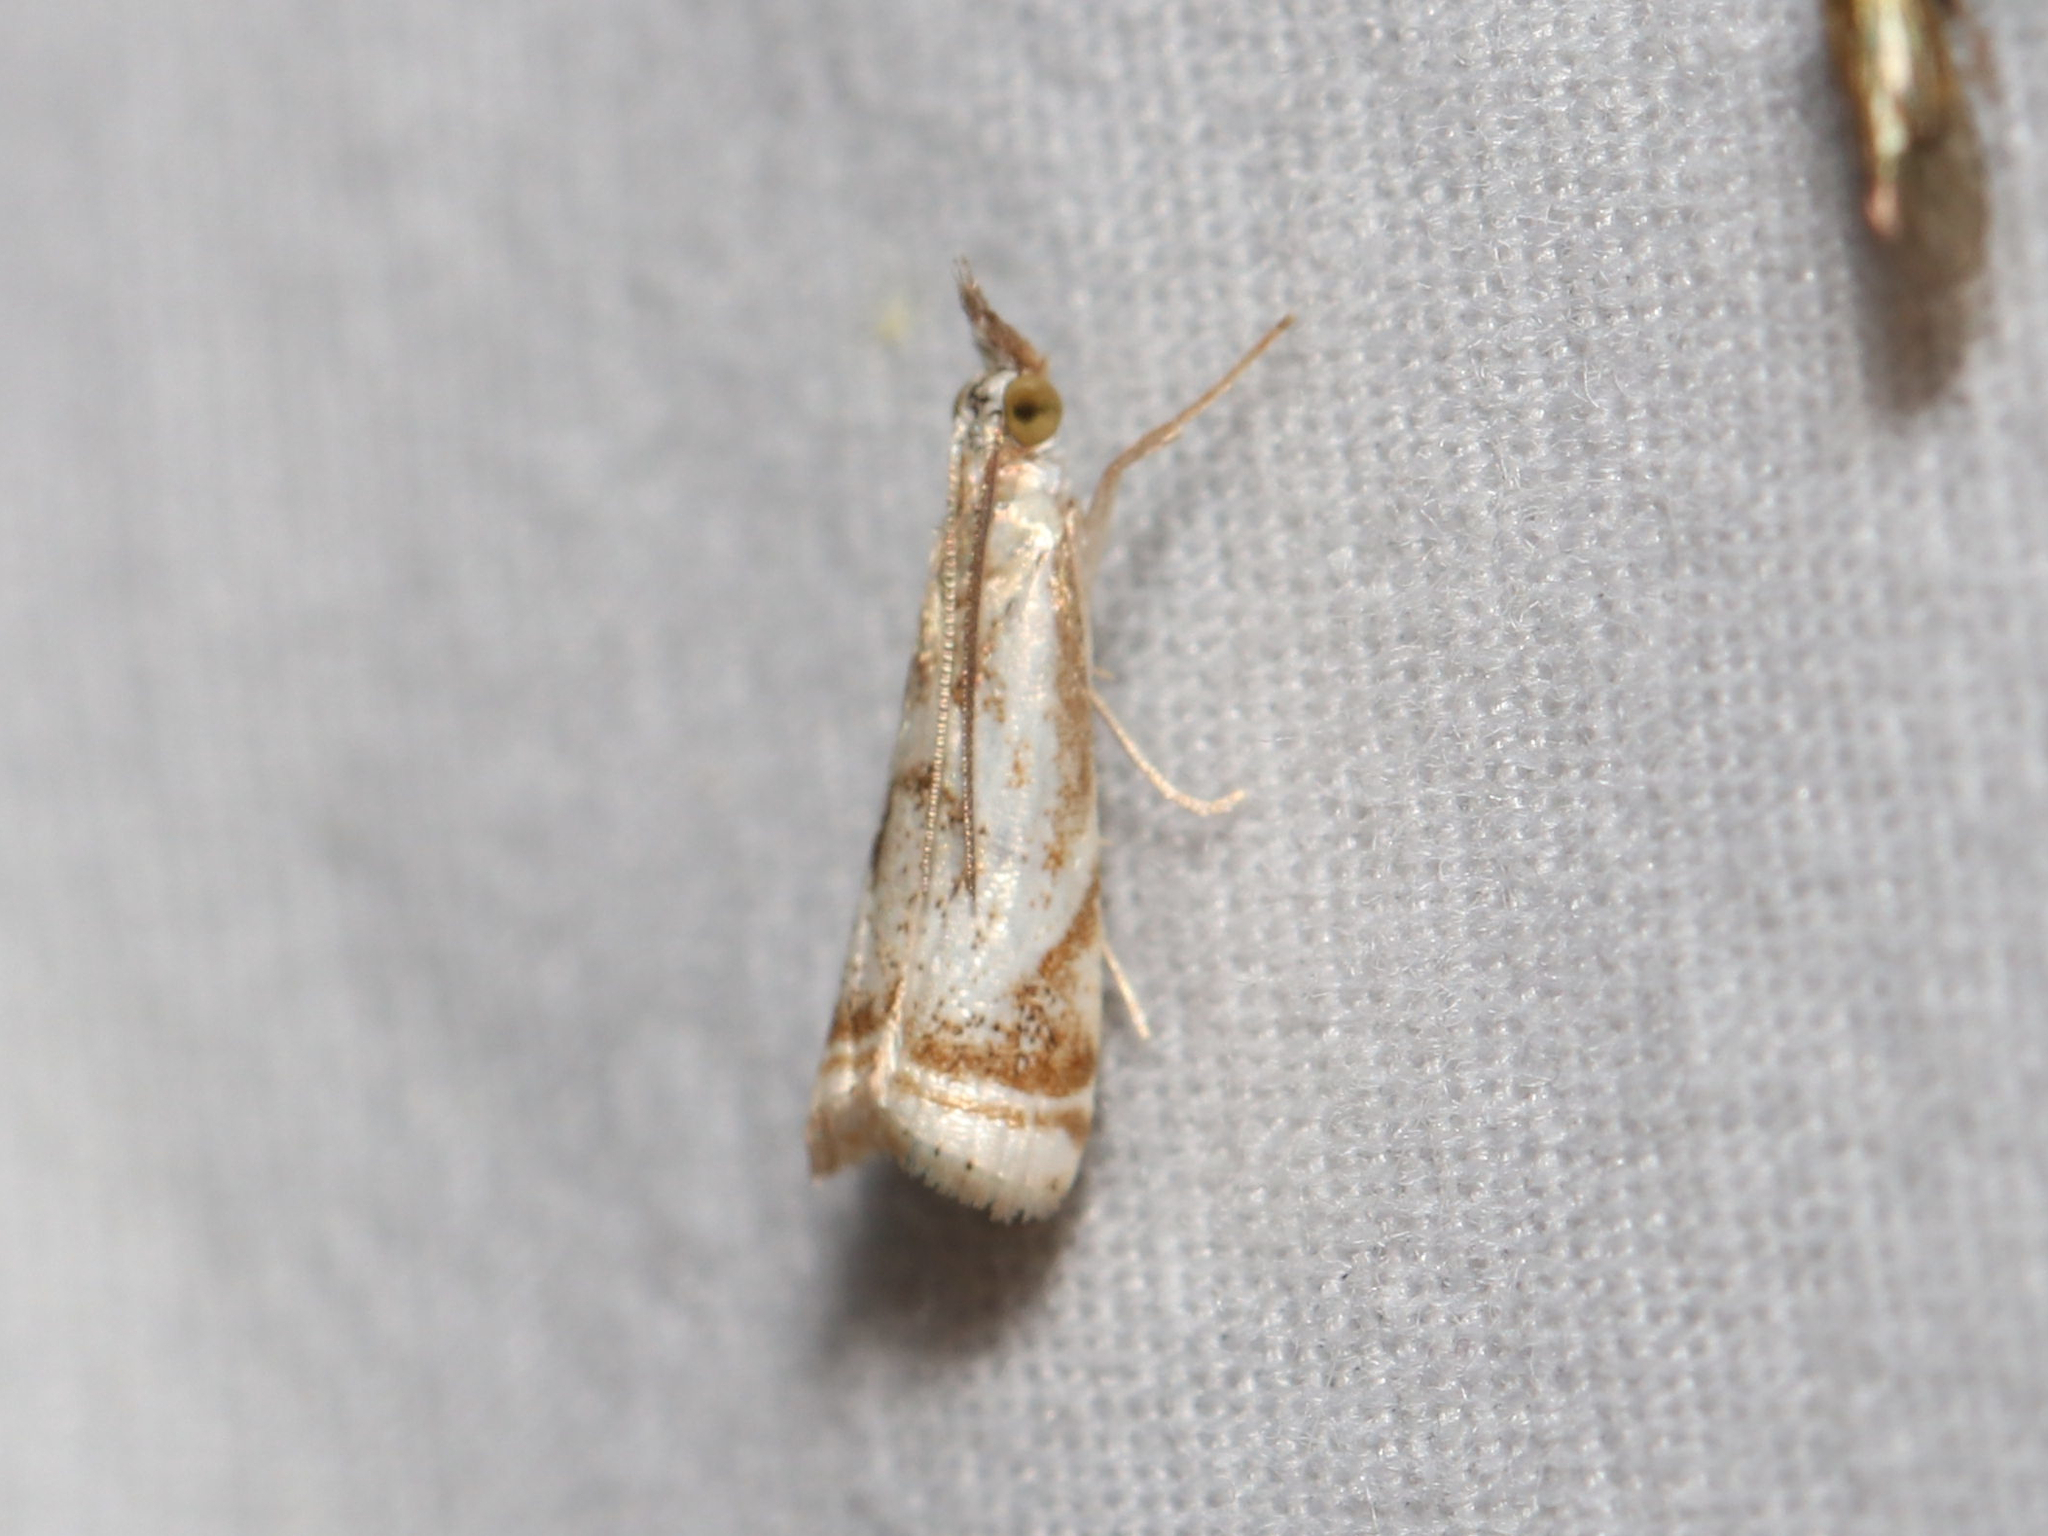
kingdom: Animalia
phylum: Arthropoda
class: Insecta
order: Lepidoptera
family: Crambidae
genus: Microcrambus
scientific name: Microcrambus elegans
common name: Elegant grass-veneer
